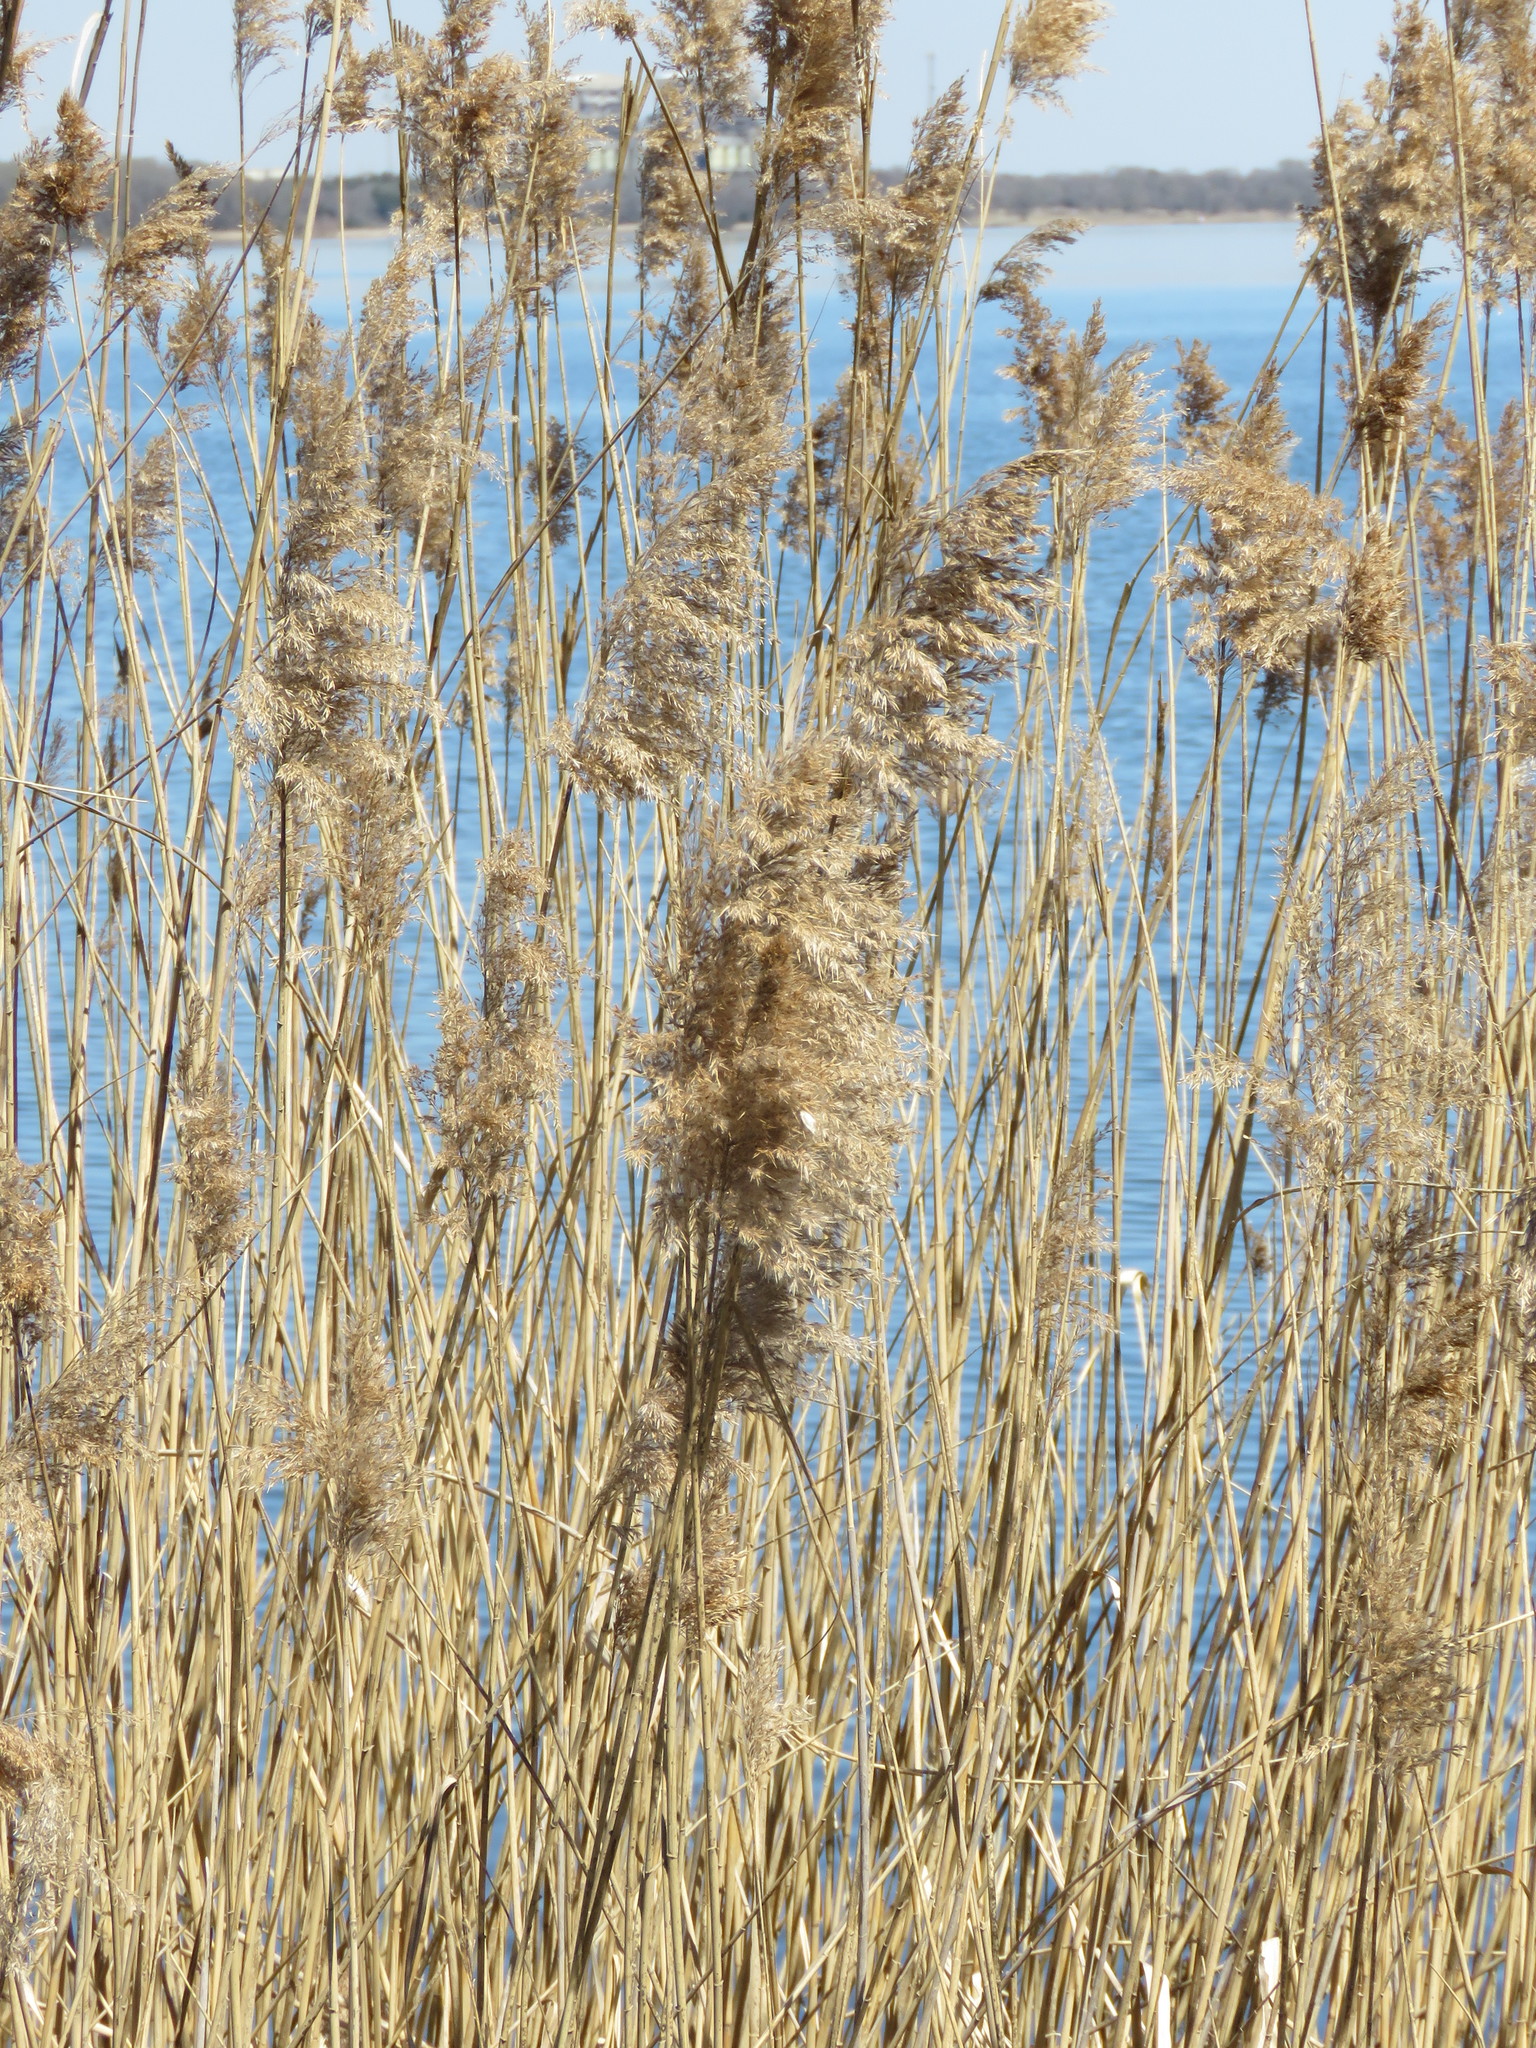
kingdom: Plantae
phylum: Tracheophyta
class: Liliopsida
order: Poales
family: Poaceae
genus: Phragmites
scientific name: Phragmites australis
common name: Common reed
